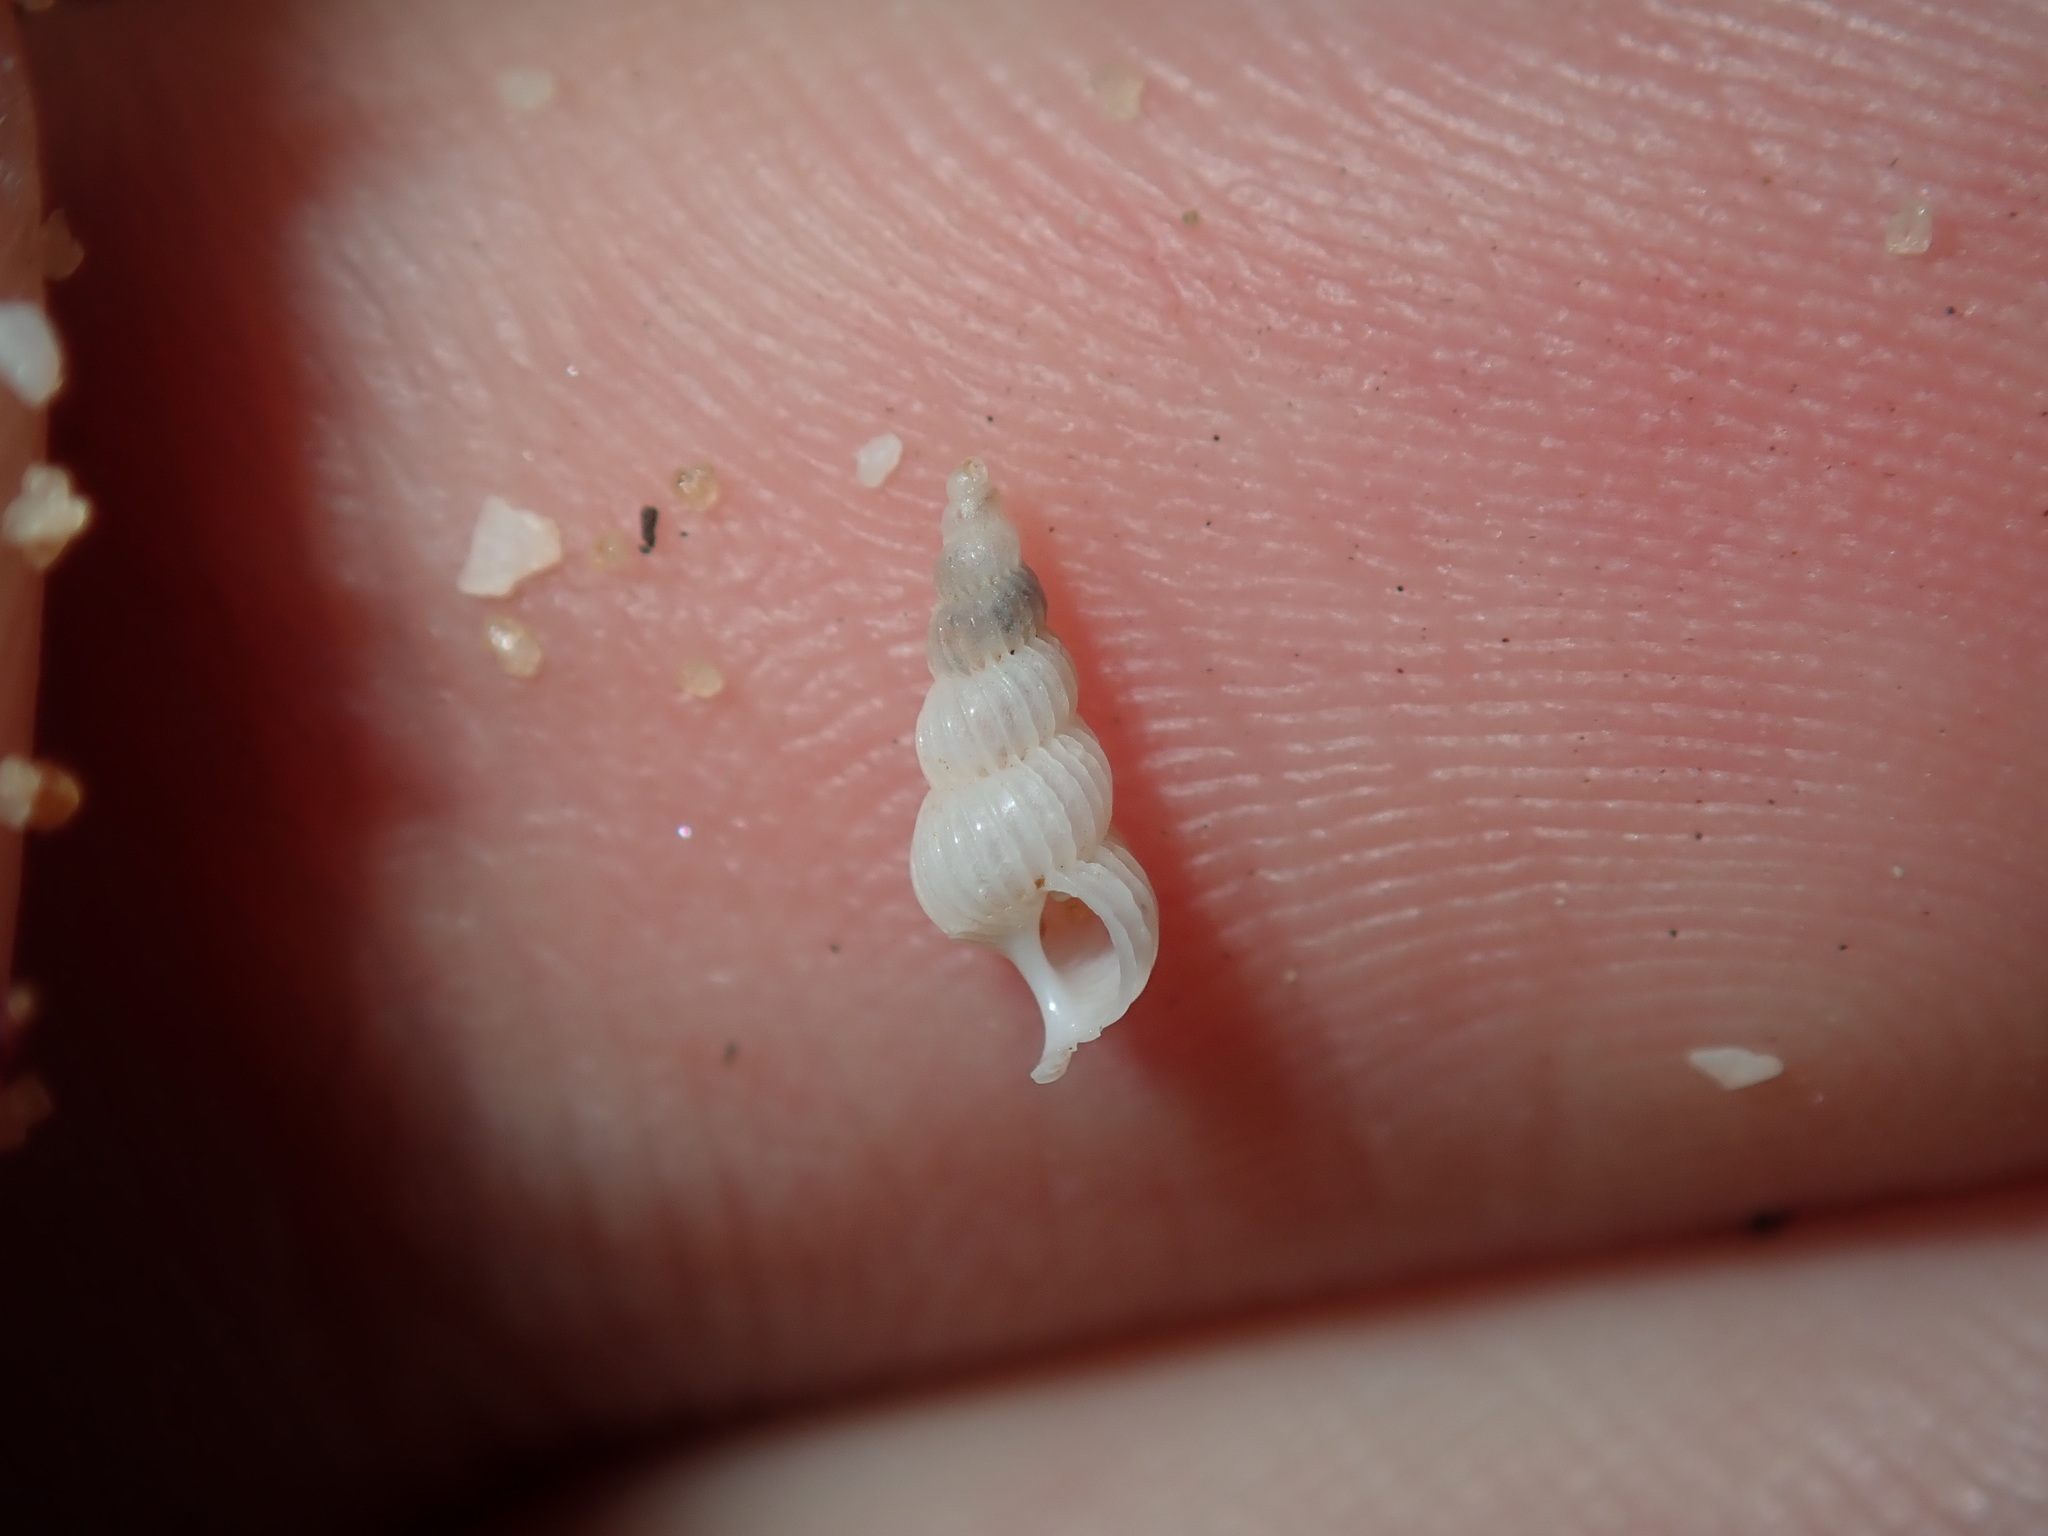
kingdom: Animalia
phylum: Mollusca
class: Gastropoda
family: Epitoniidae
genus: Epitonium
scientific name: Epitonium jukesianum
